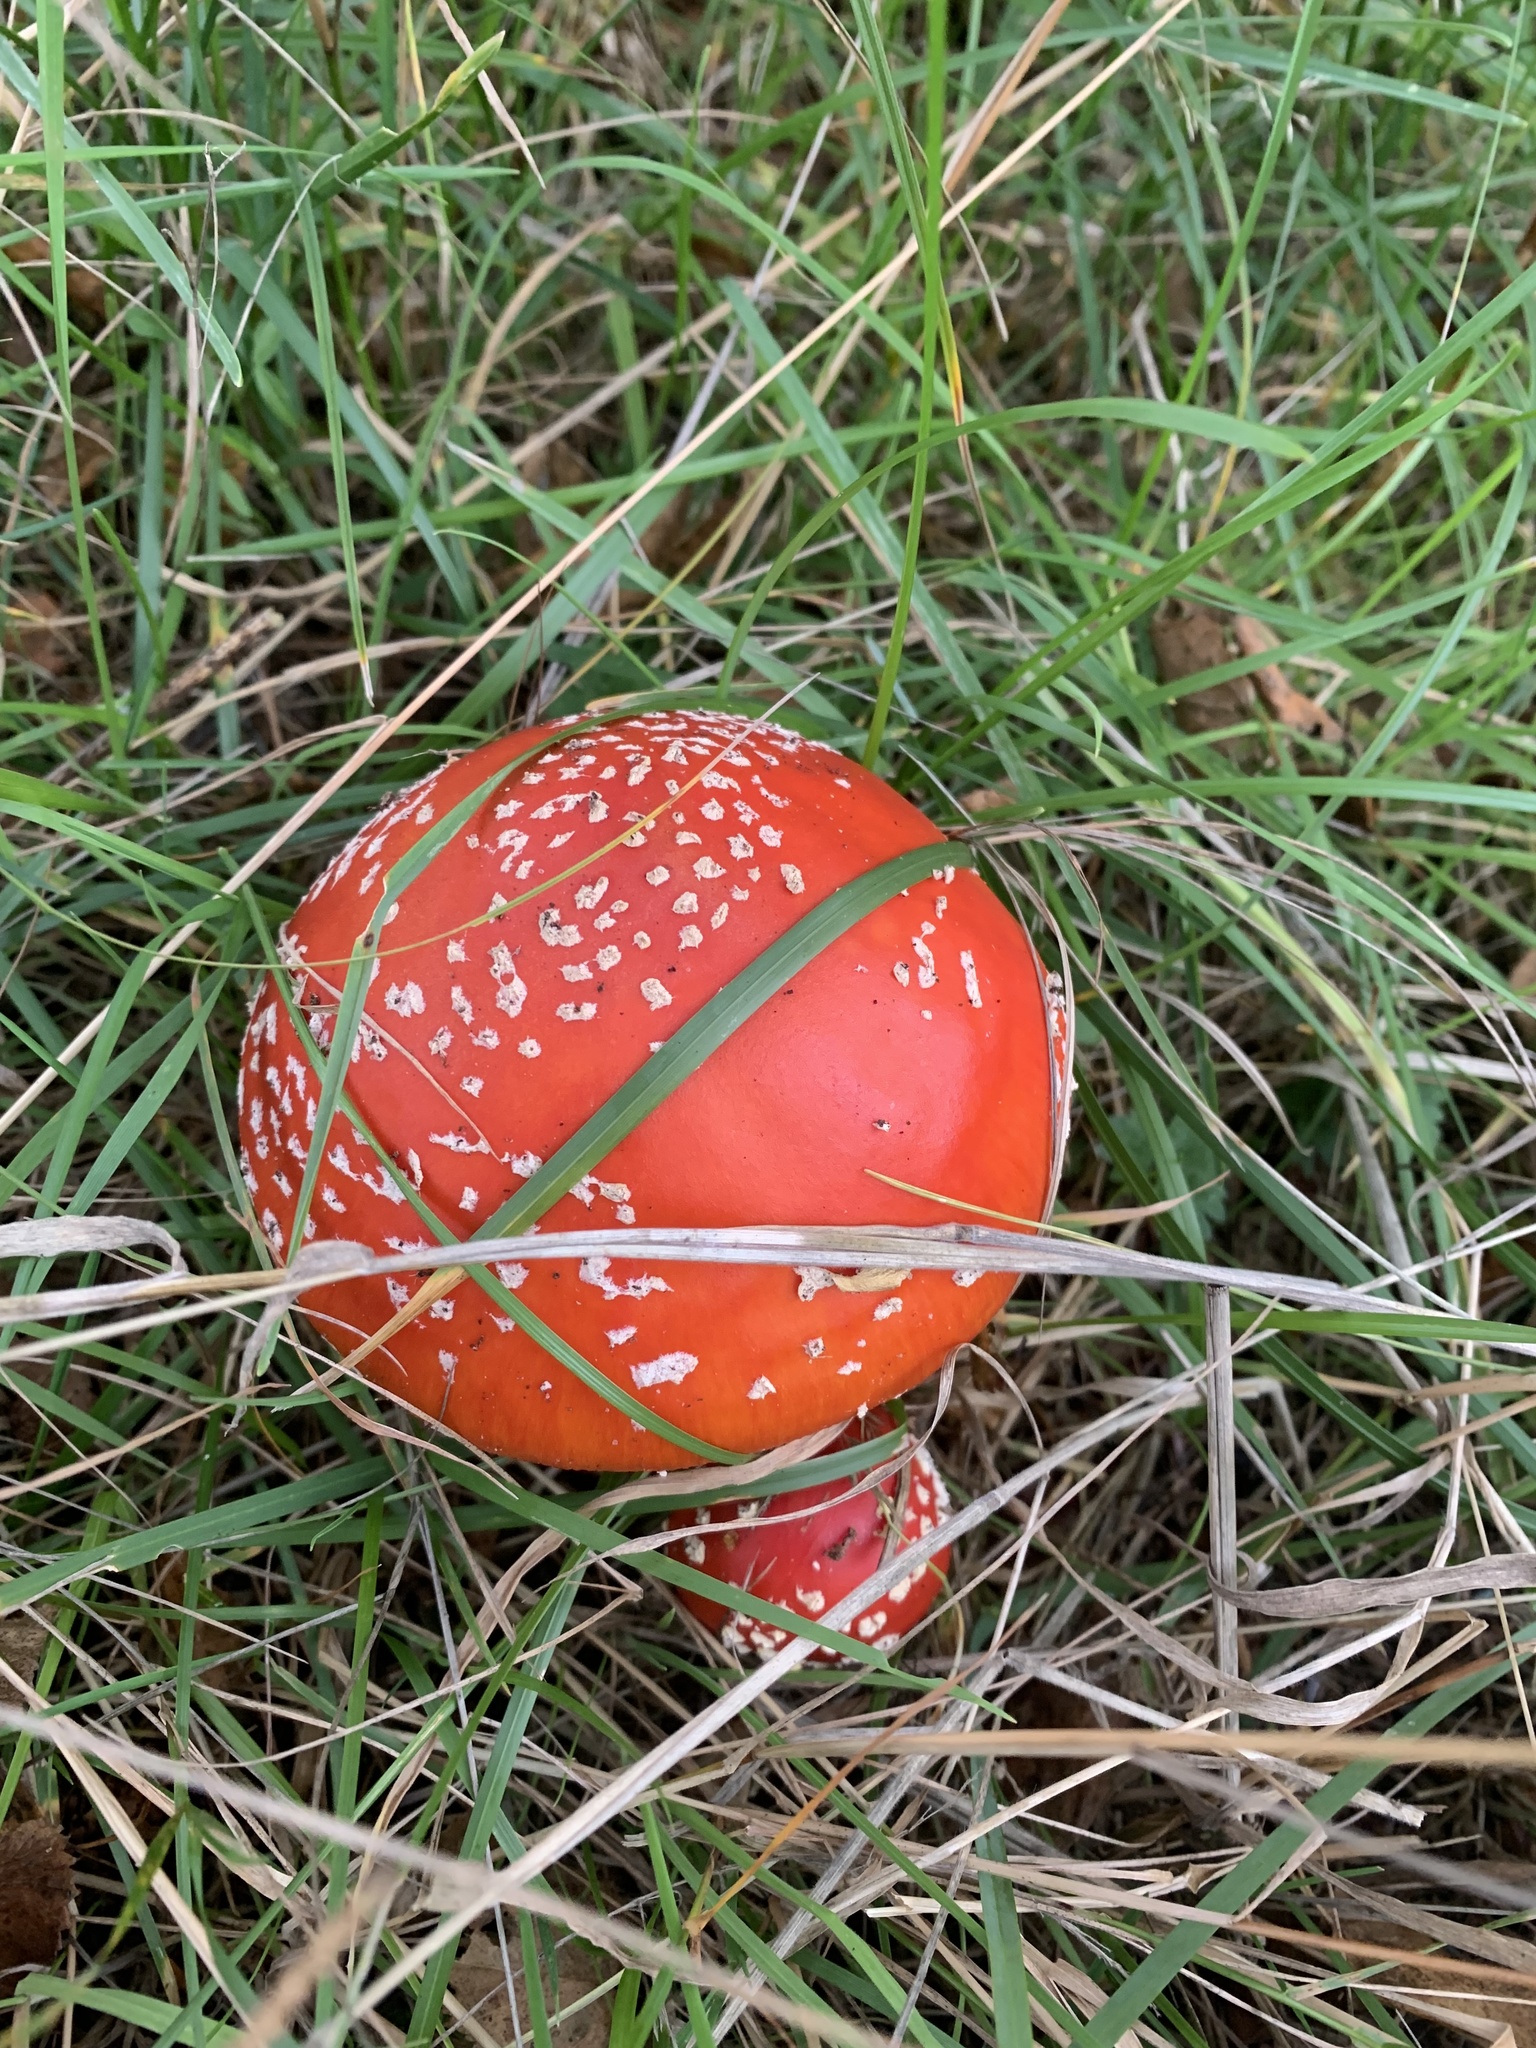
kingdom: Fungi
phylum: Basidiomycota
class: Agaricomycetes
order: Agaricales
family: Amanitaceae
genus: Amanita
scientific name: Amanita muscaria
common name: Fly agaric
